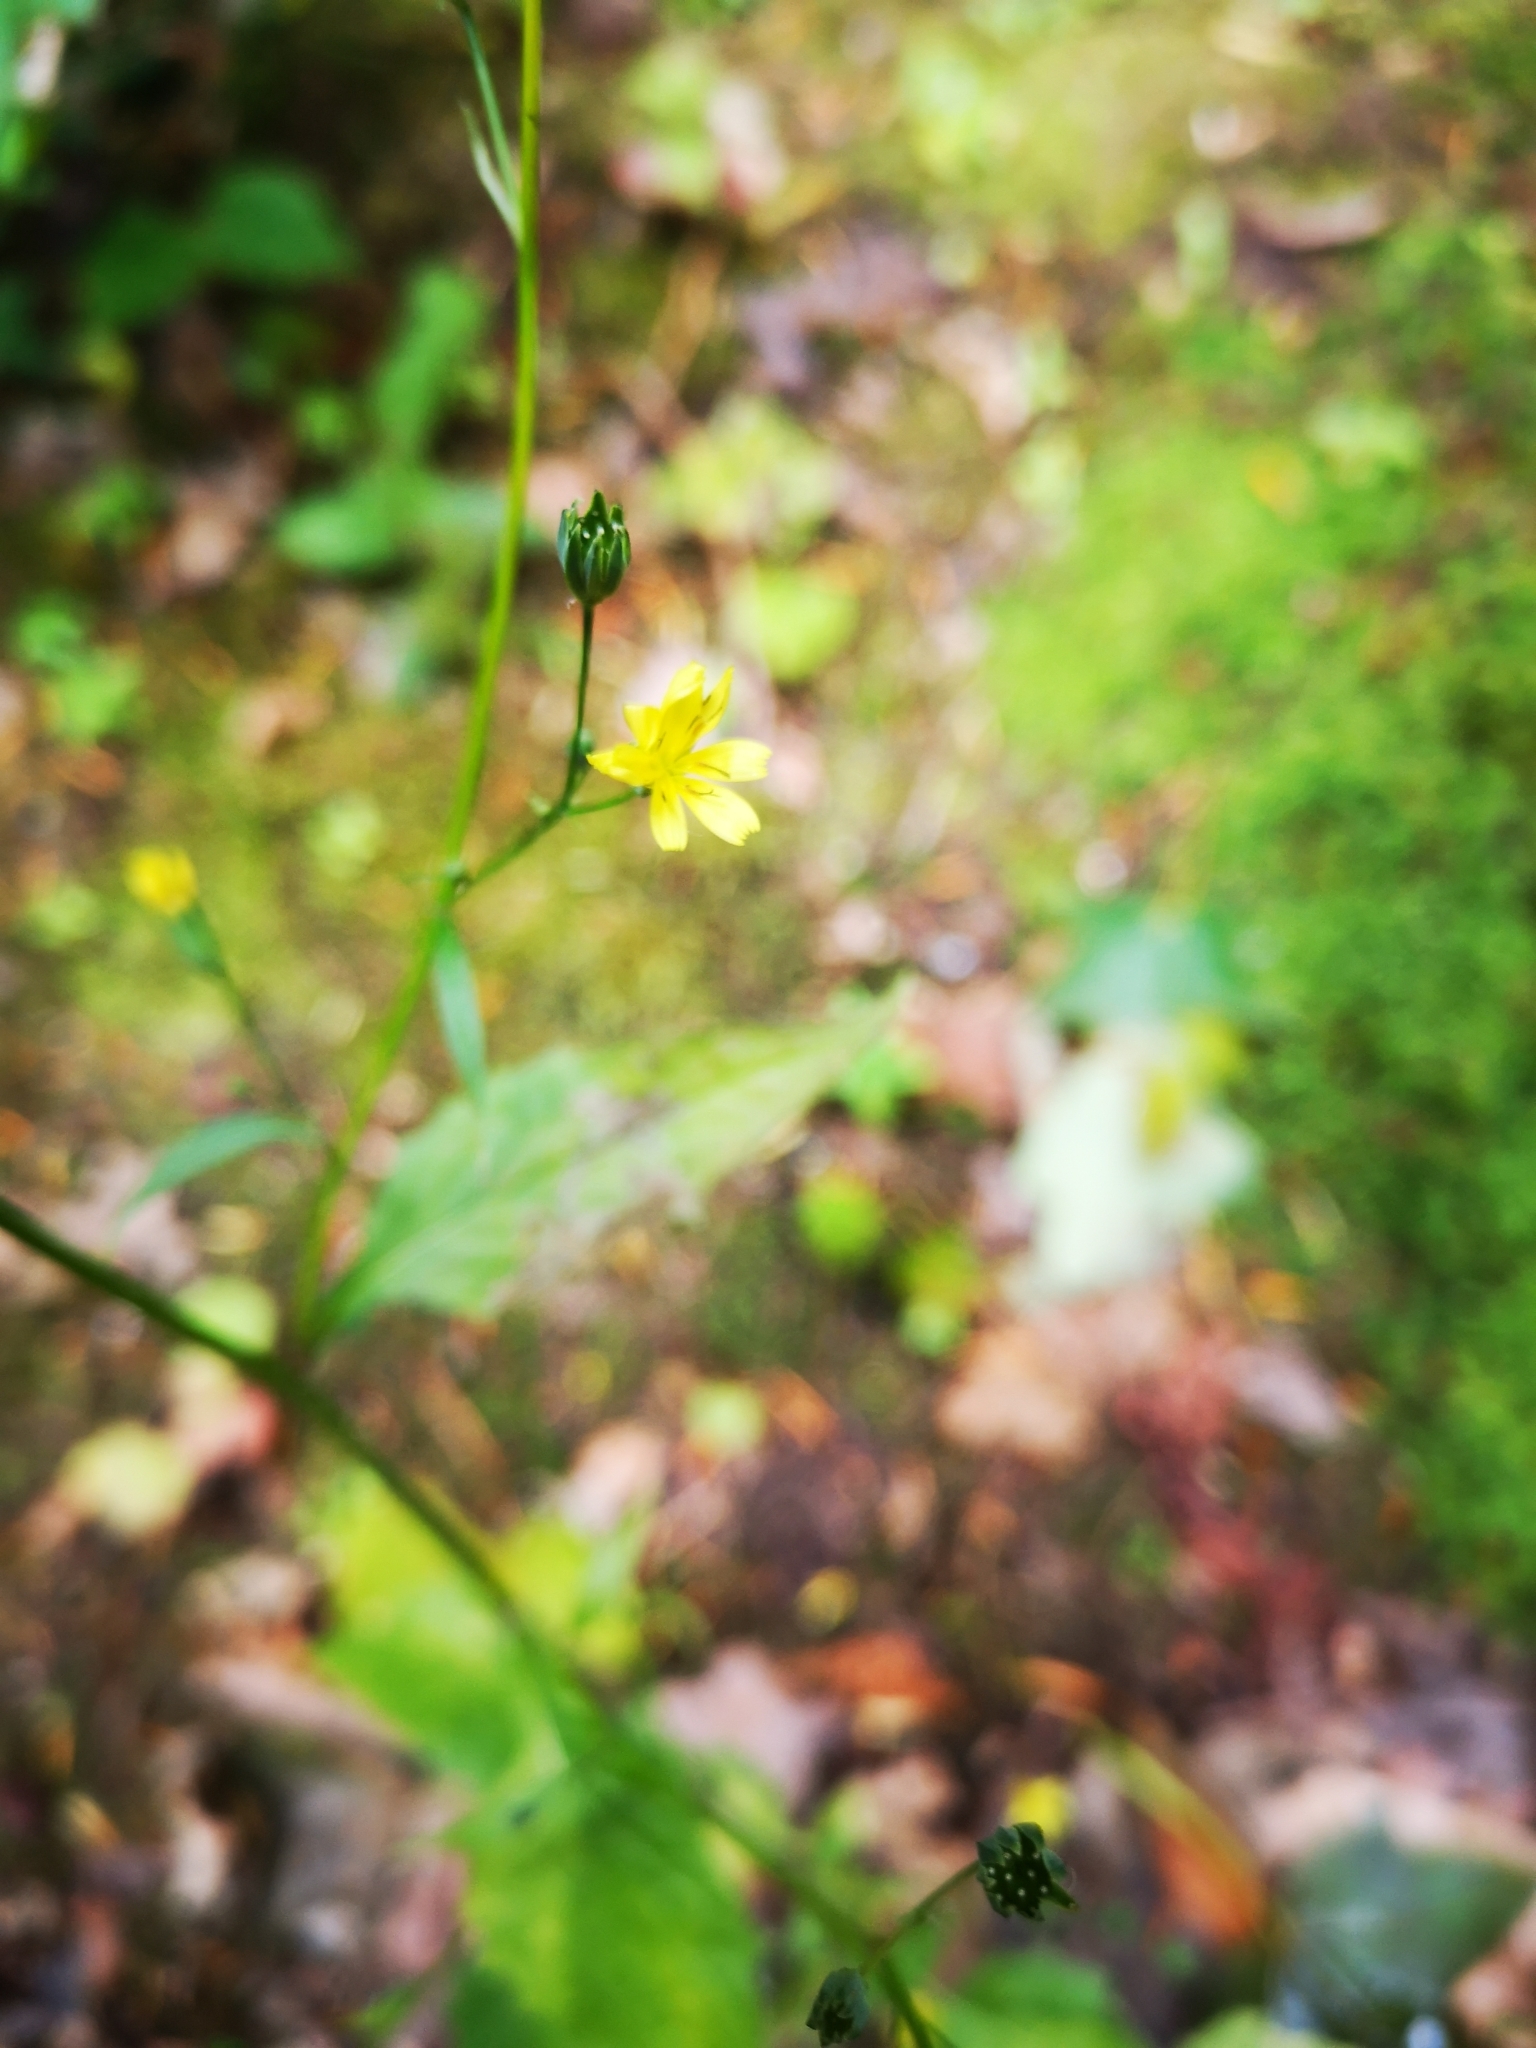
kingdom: Plantae
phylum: Tracheophyta
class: Magnoliopsida
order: Asterales
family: Asteraceae
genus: Lapsana
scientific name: Lapsana communis
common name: Nipplewort
